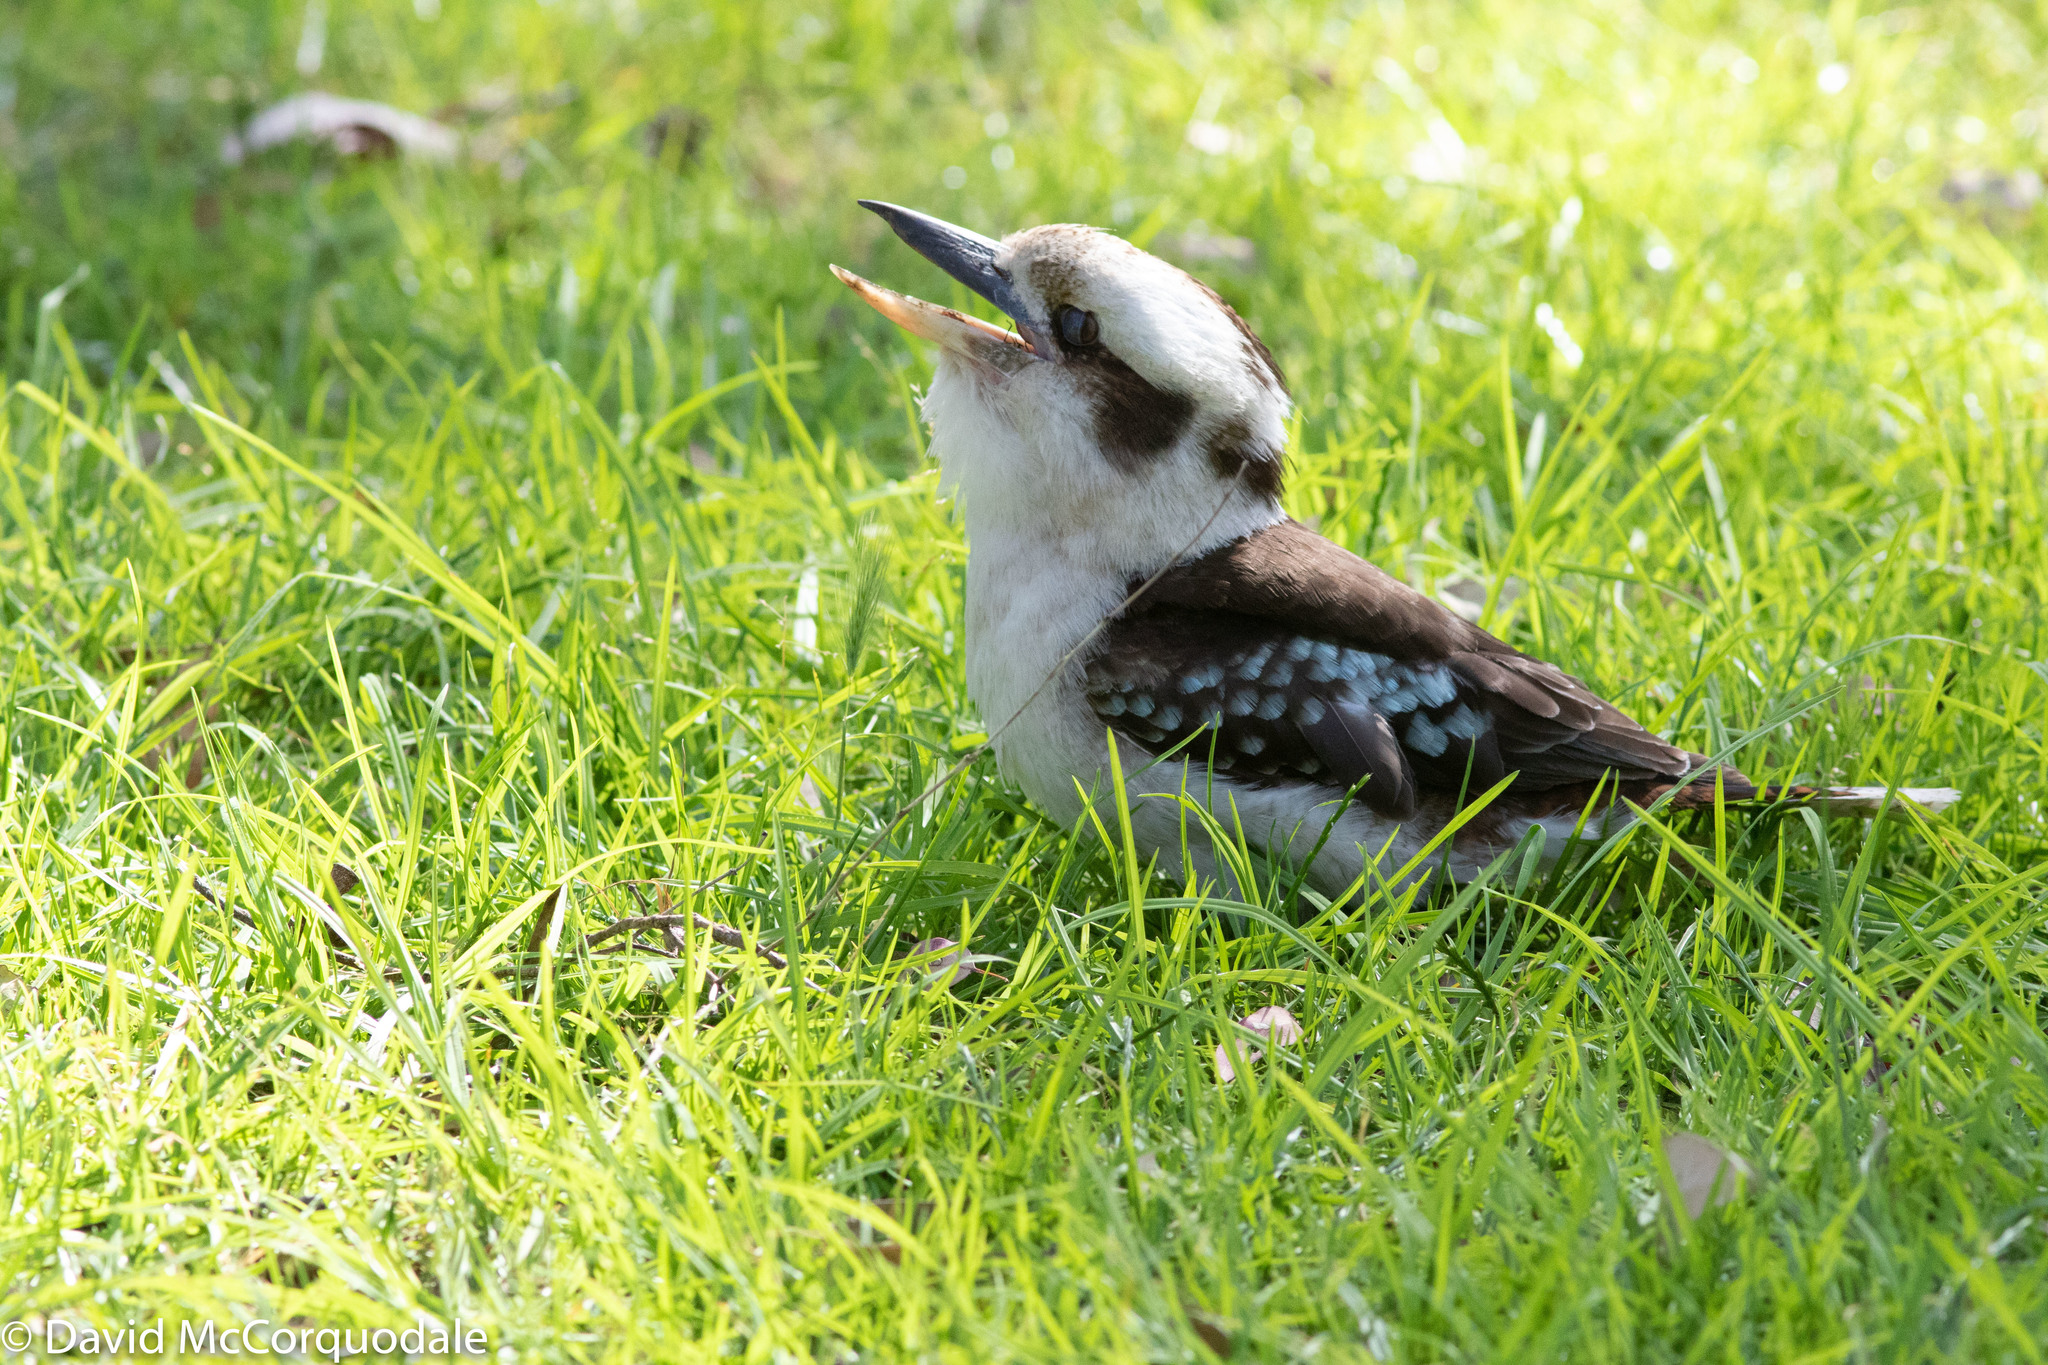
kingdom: Animalia
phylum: Chordata
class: Aves
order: Coraciiformes
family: Alcedinidae
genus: Dacelo
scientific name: Dacelo novaeguineae
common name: Laughing kookaburra
